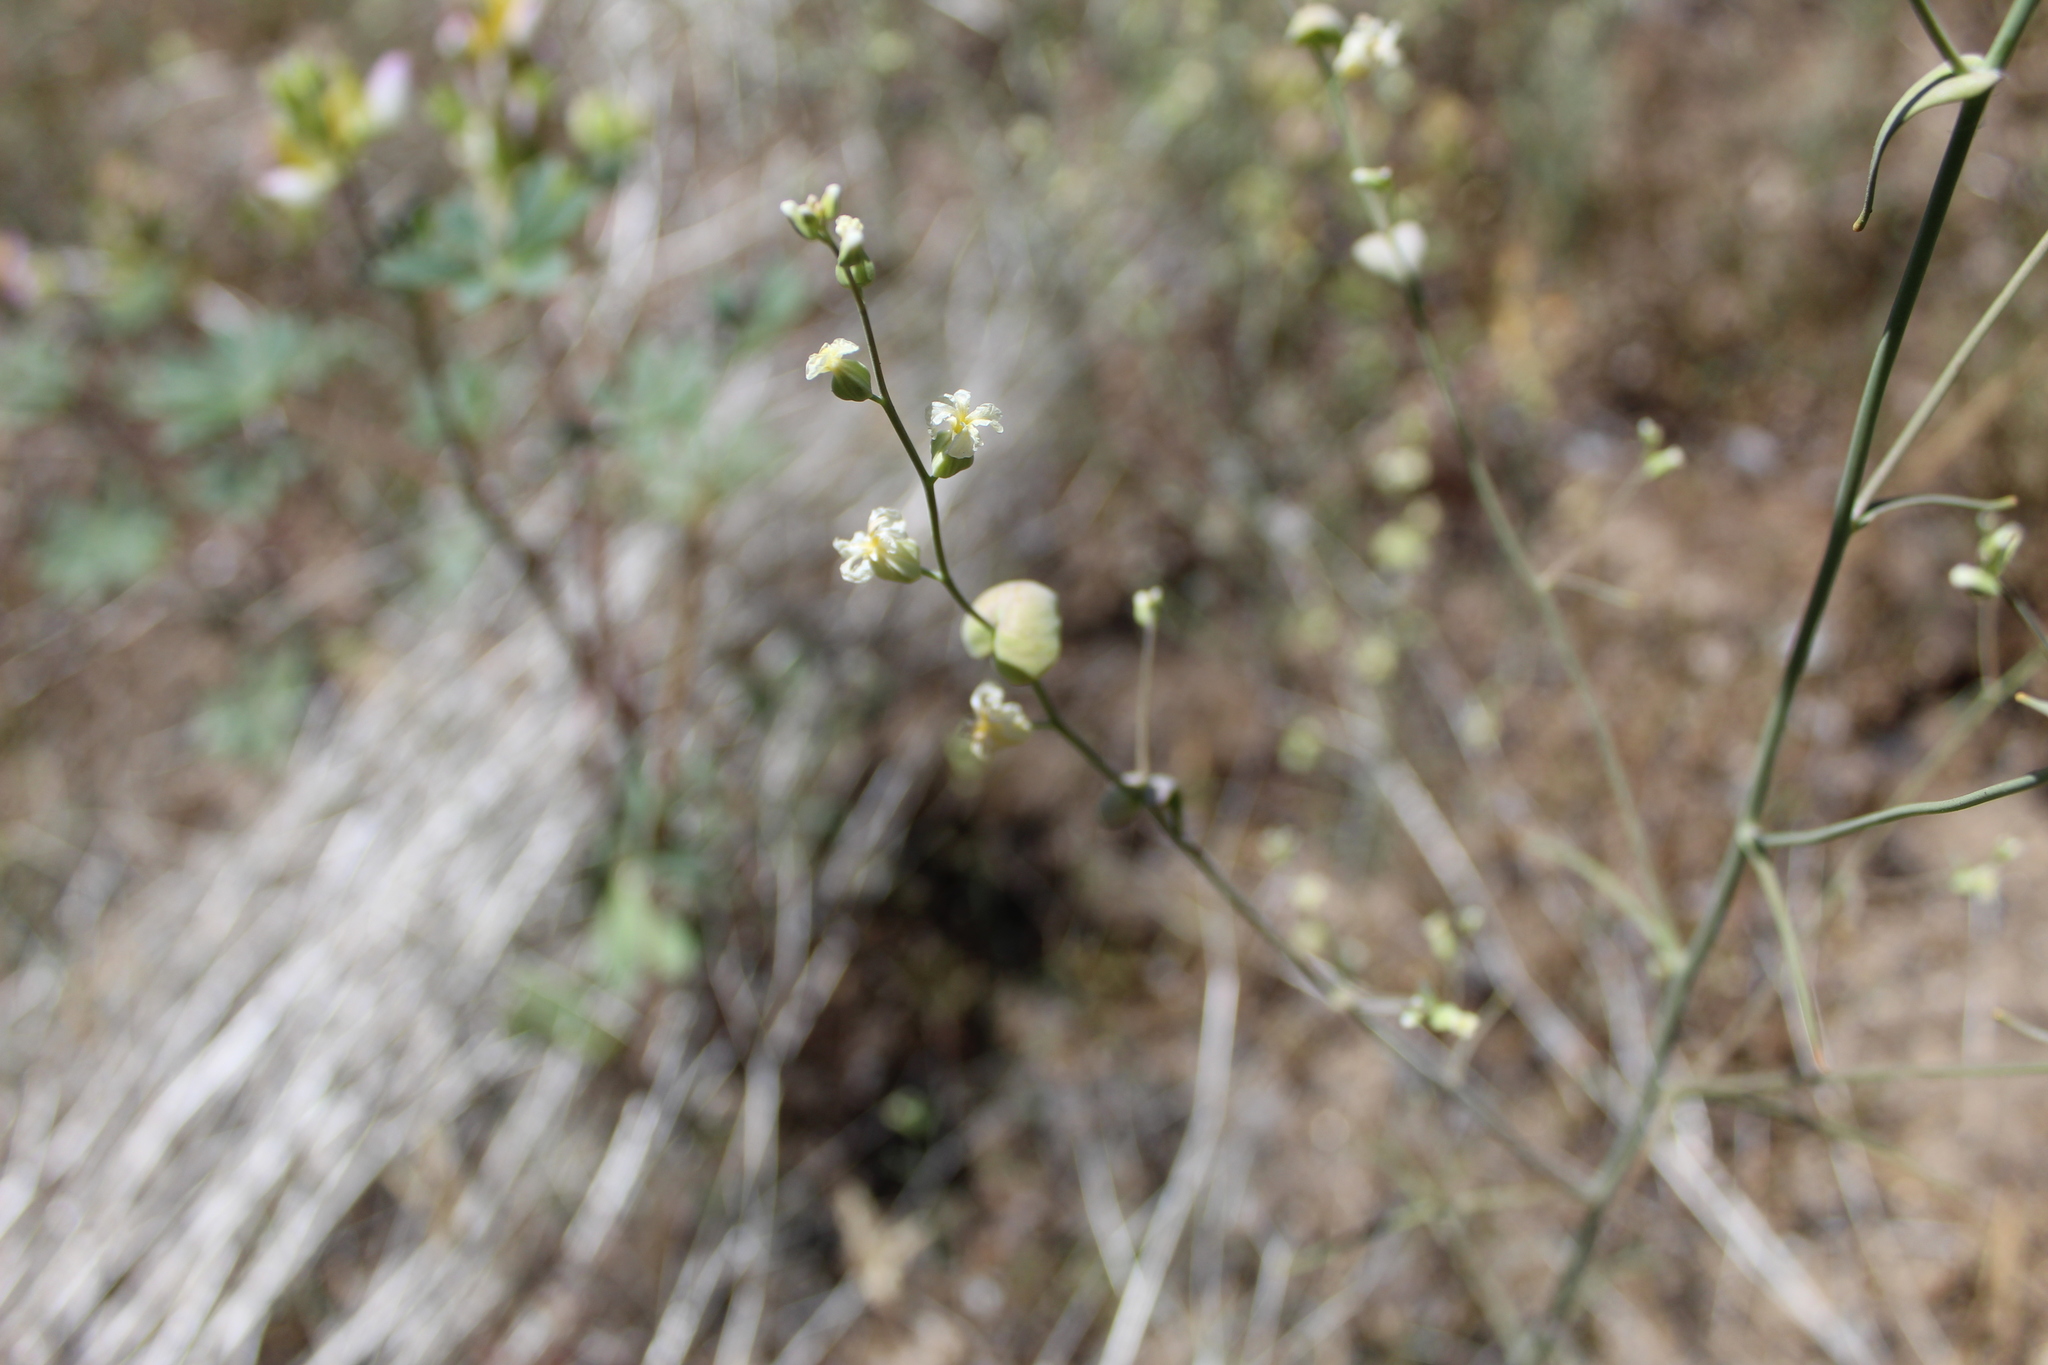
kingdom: Plantae
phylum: Tracheophyta
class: Magnoliopsida
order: Brassicales
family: Brassicaceae
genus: Streptanthus
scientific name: Streptanthus diversifolius
